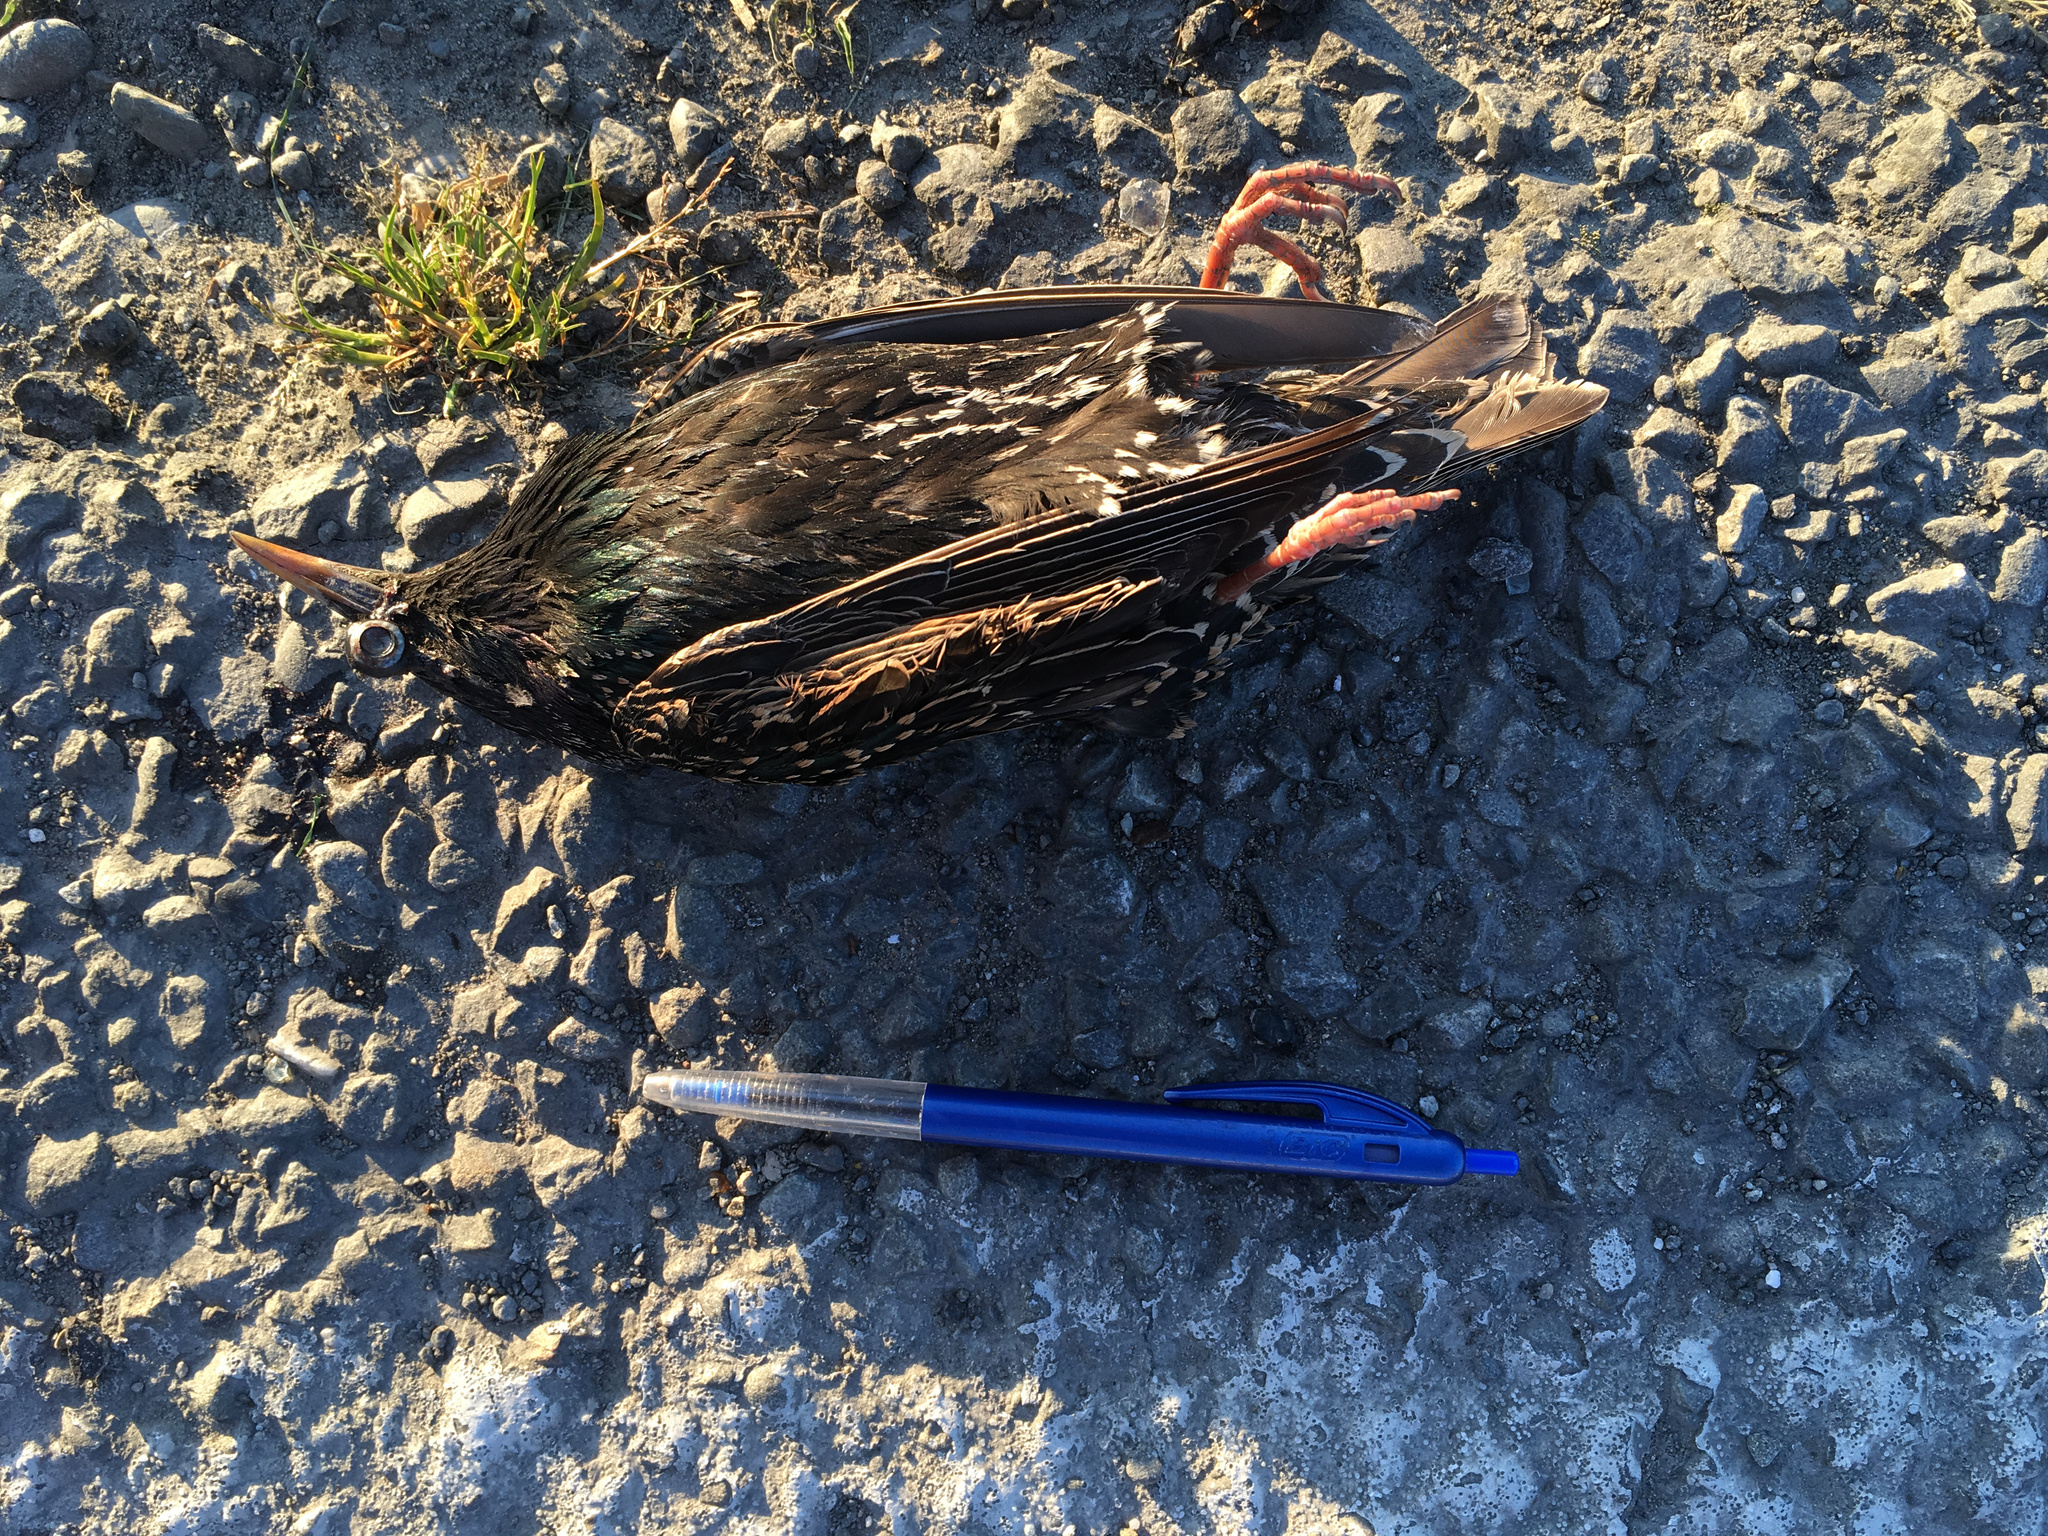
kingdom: Animalia
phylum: Chordata
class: Aves
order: Passeriformes
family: Sturnidae
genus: Sturnus
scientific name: Sturnus vulgaris
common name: Common starling
